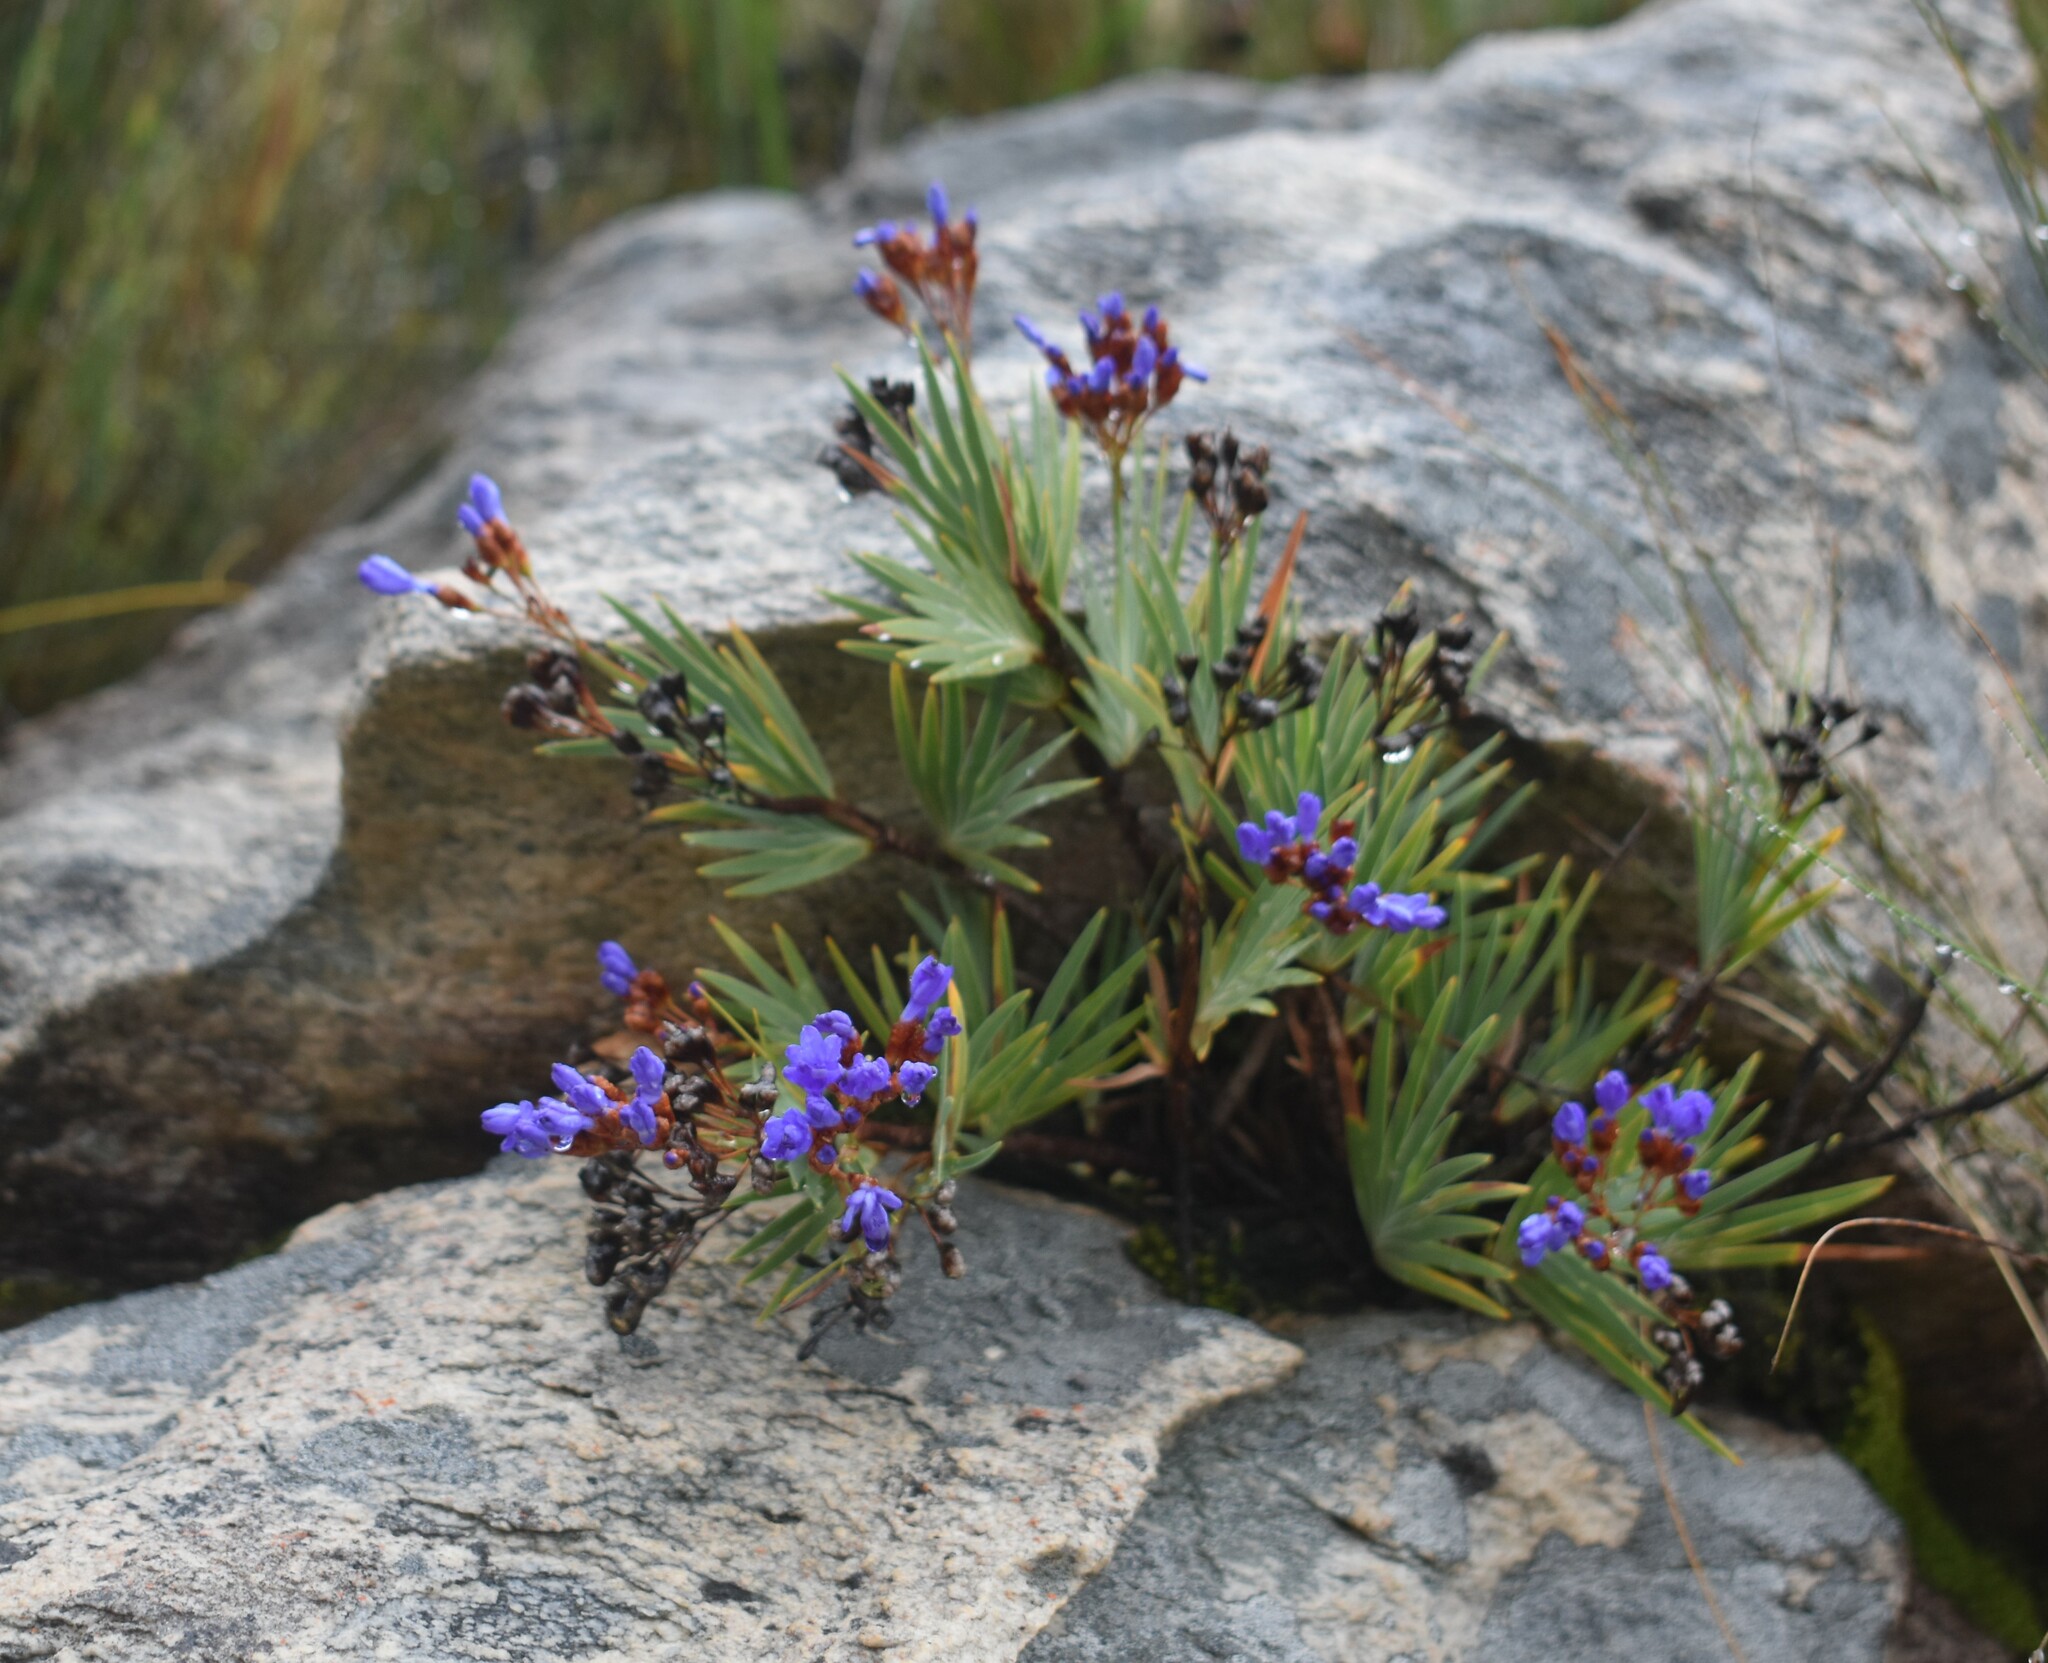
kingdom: Plantae
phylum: Tracheophyta
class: Liliopsida
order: Asparagales
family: Iridaceae
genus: Nivenia
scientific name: Nivenia binata
